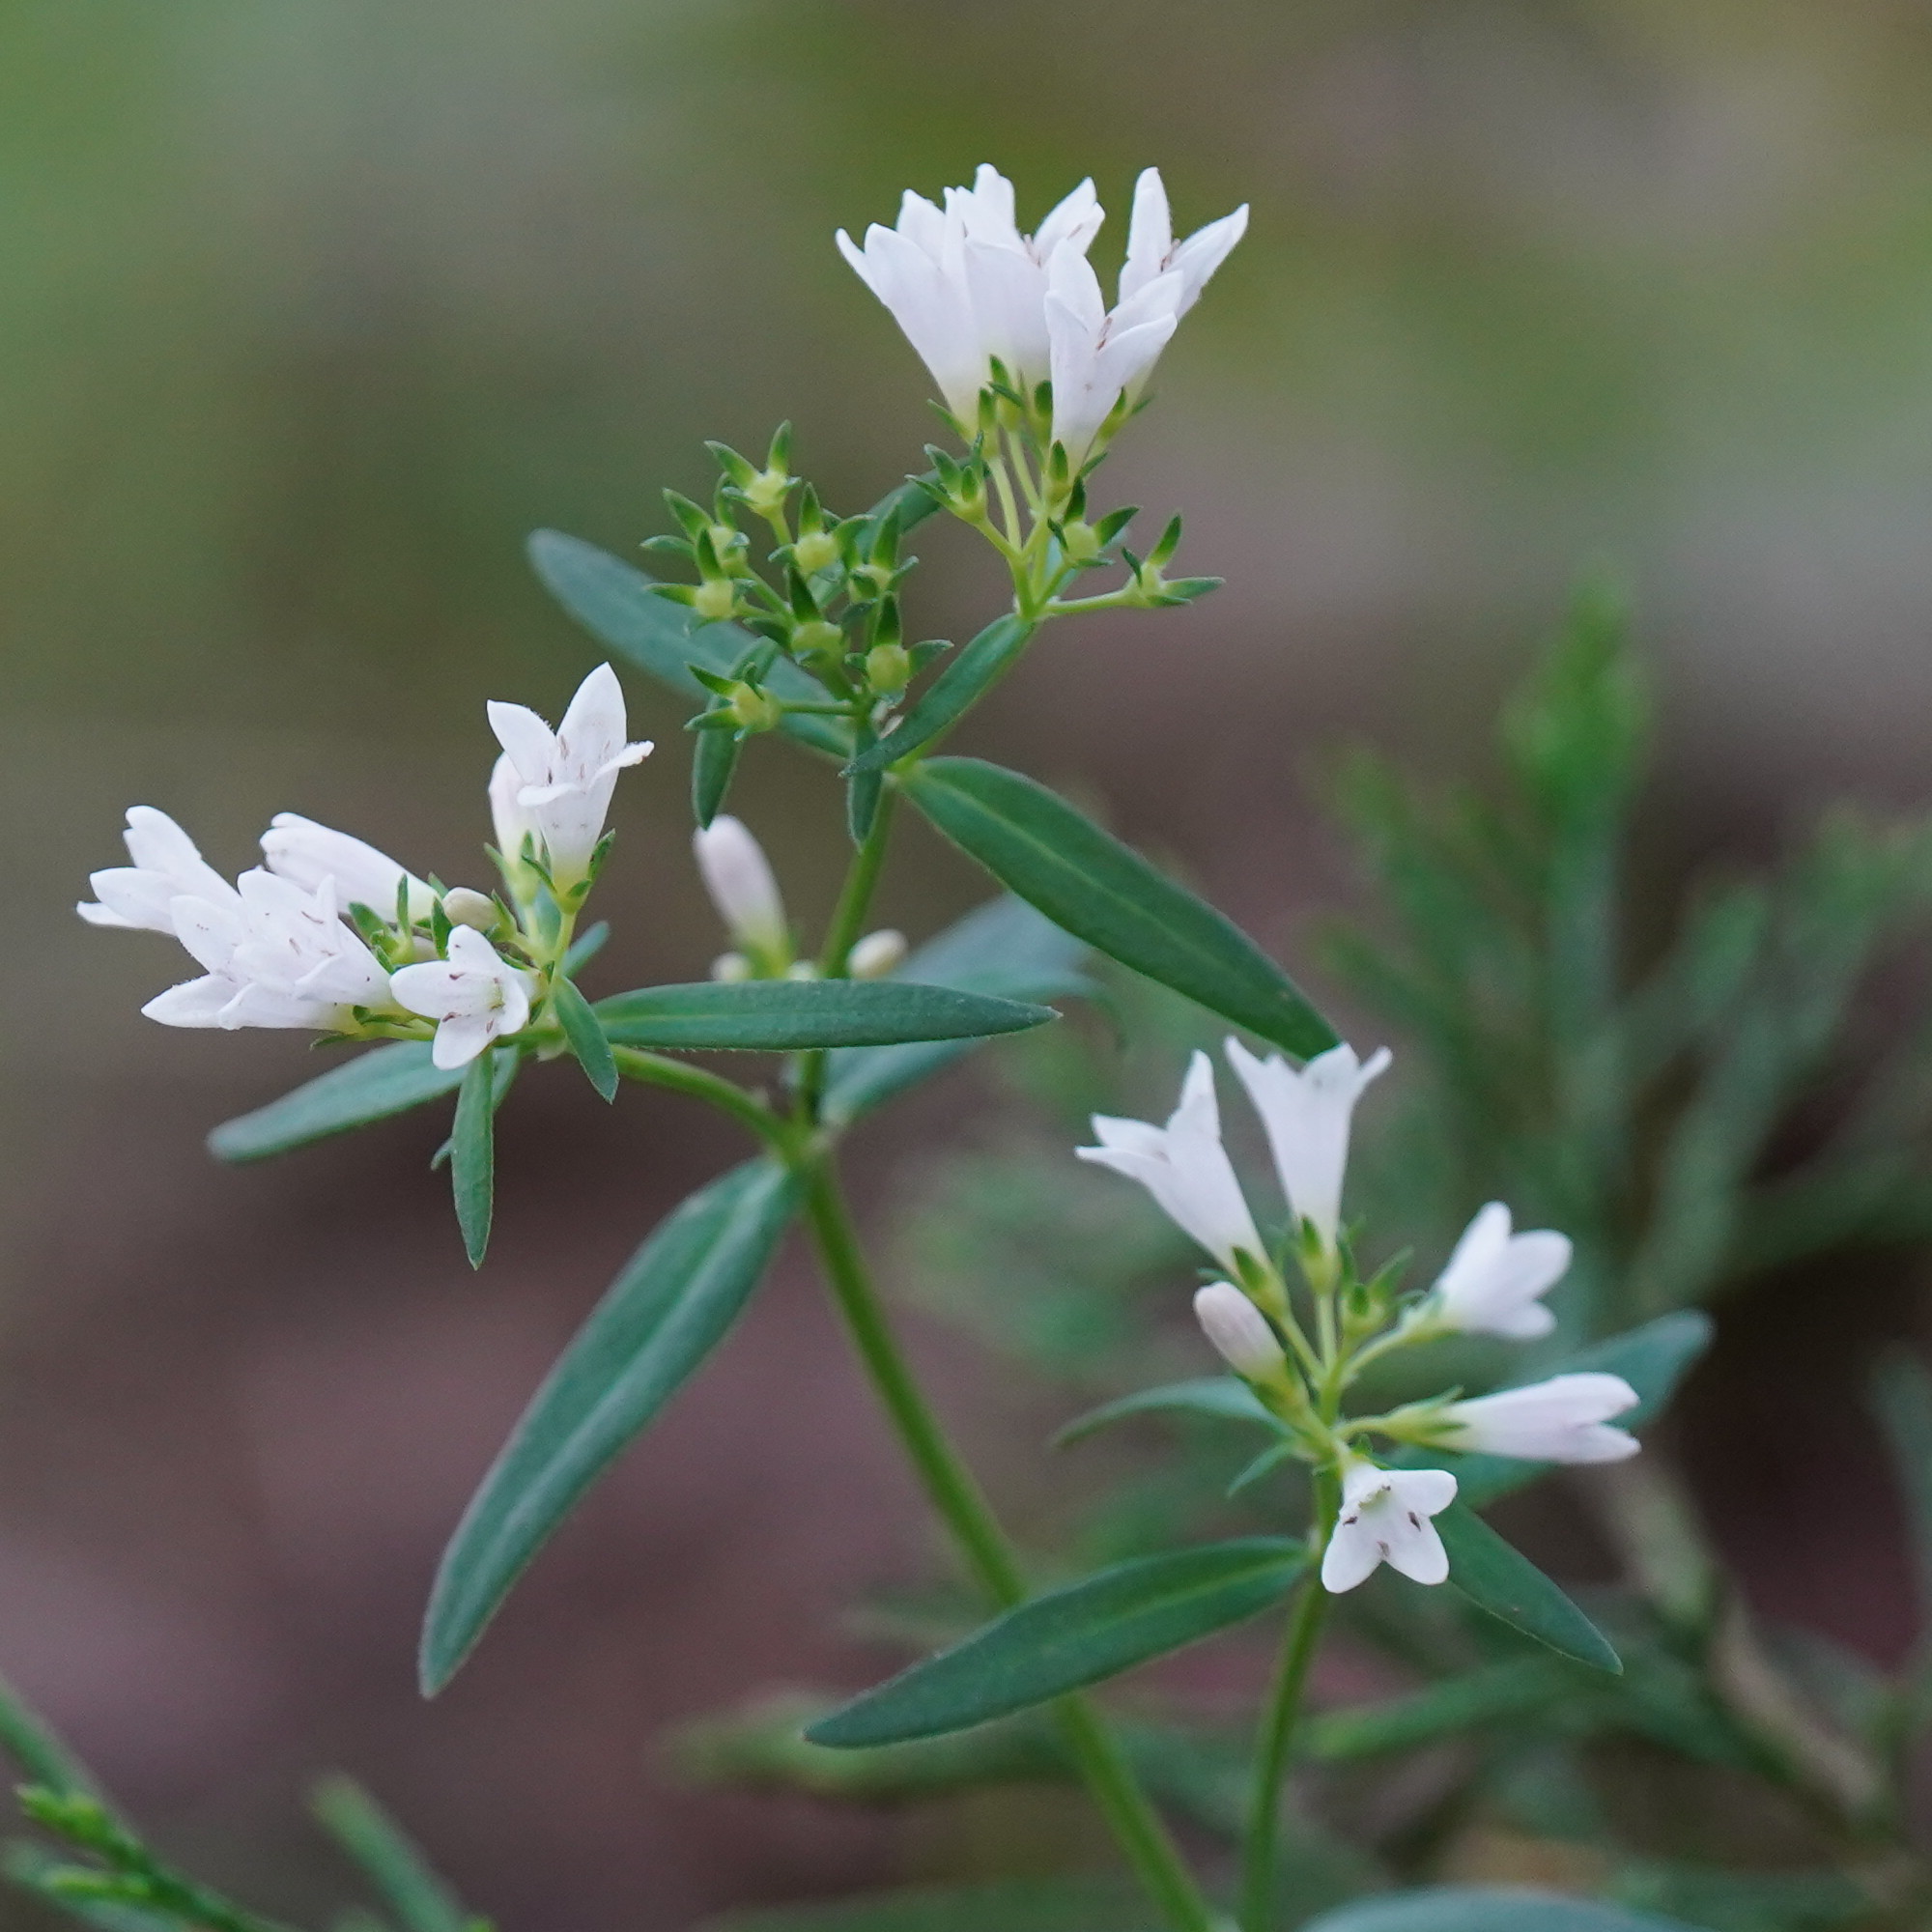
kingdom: Plantae
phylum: Tracheophyta
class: Magnoliopsida
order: Gentianales
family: Rubiaceae
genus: Houstonia
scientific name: Houstonia longifolia
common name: Long-leaved bluets
